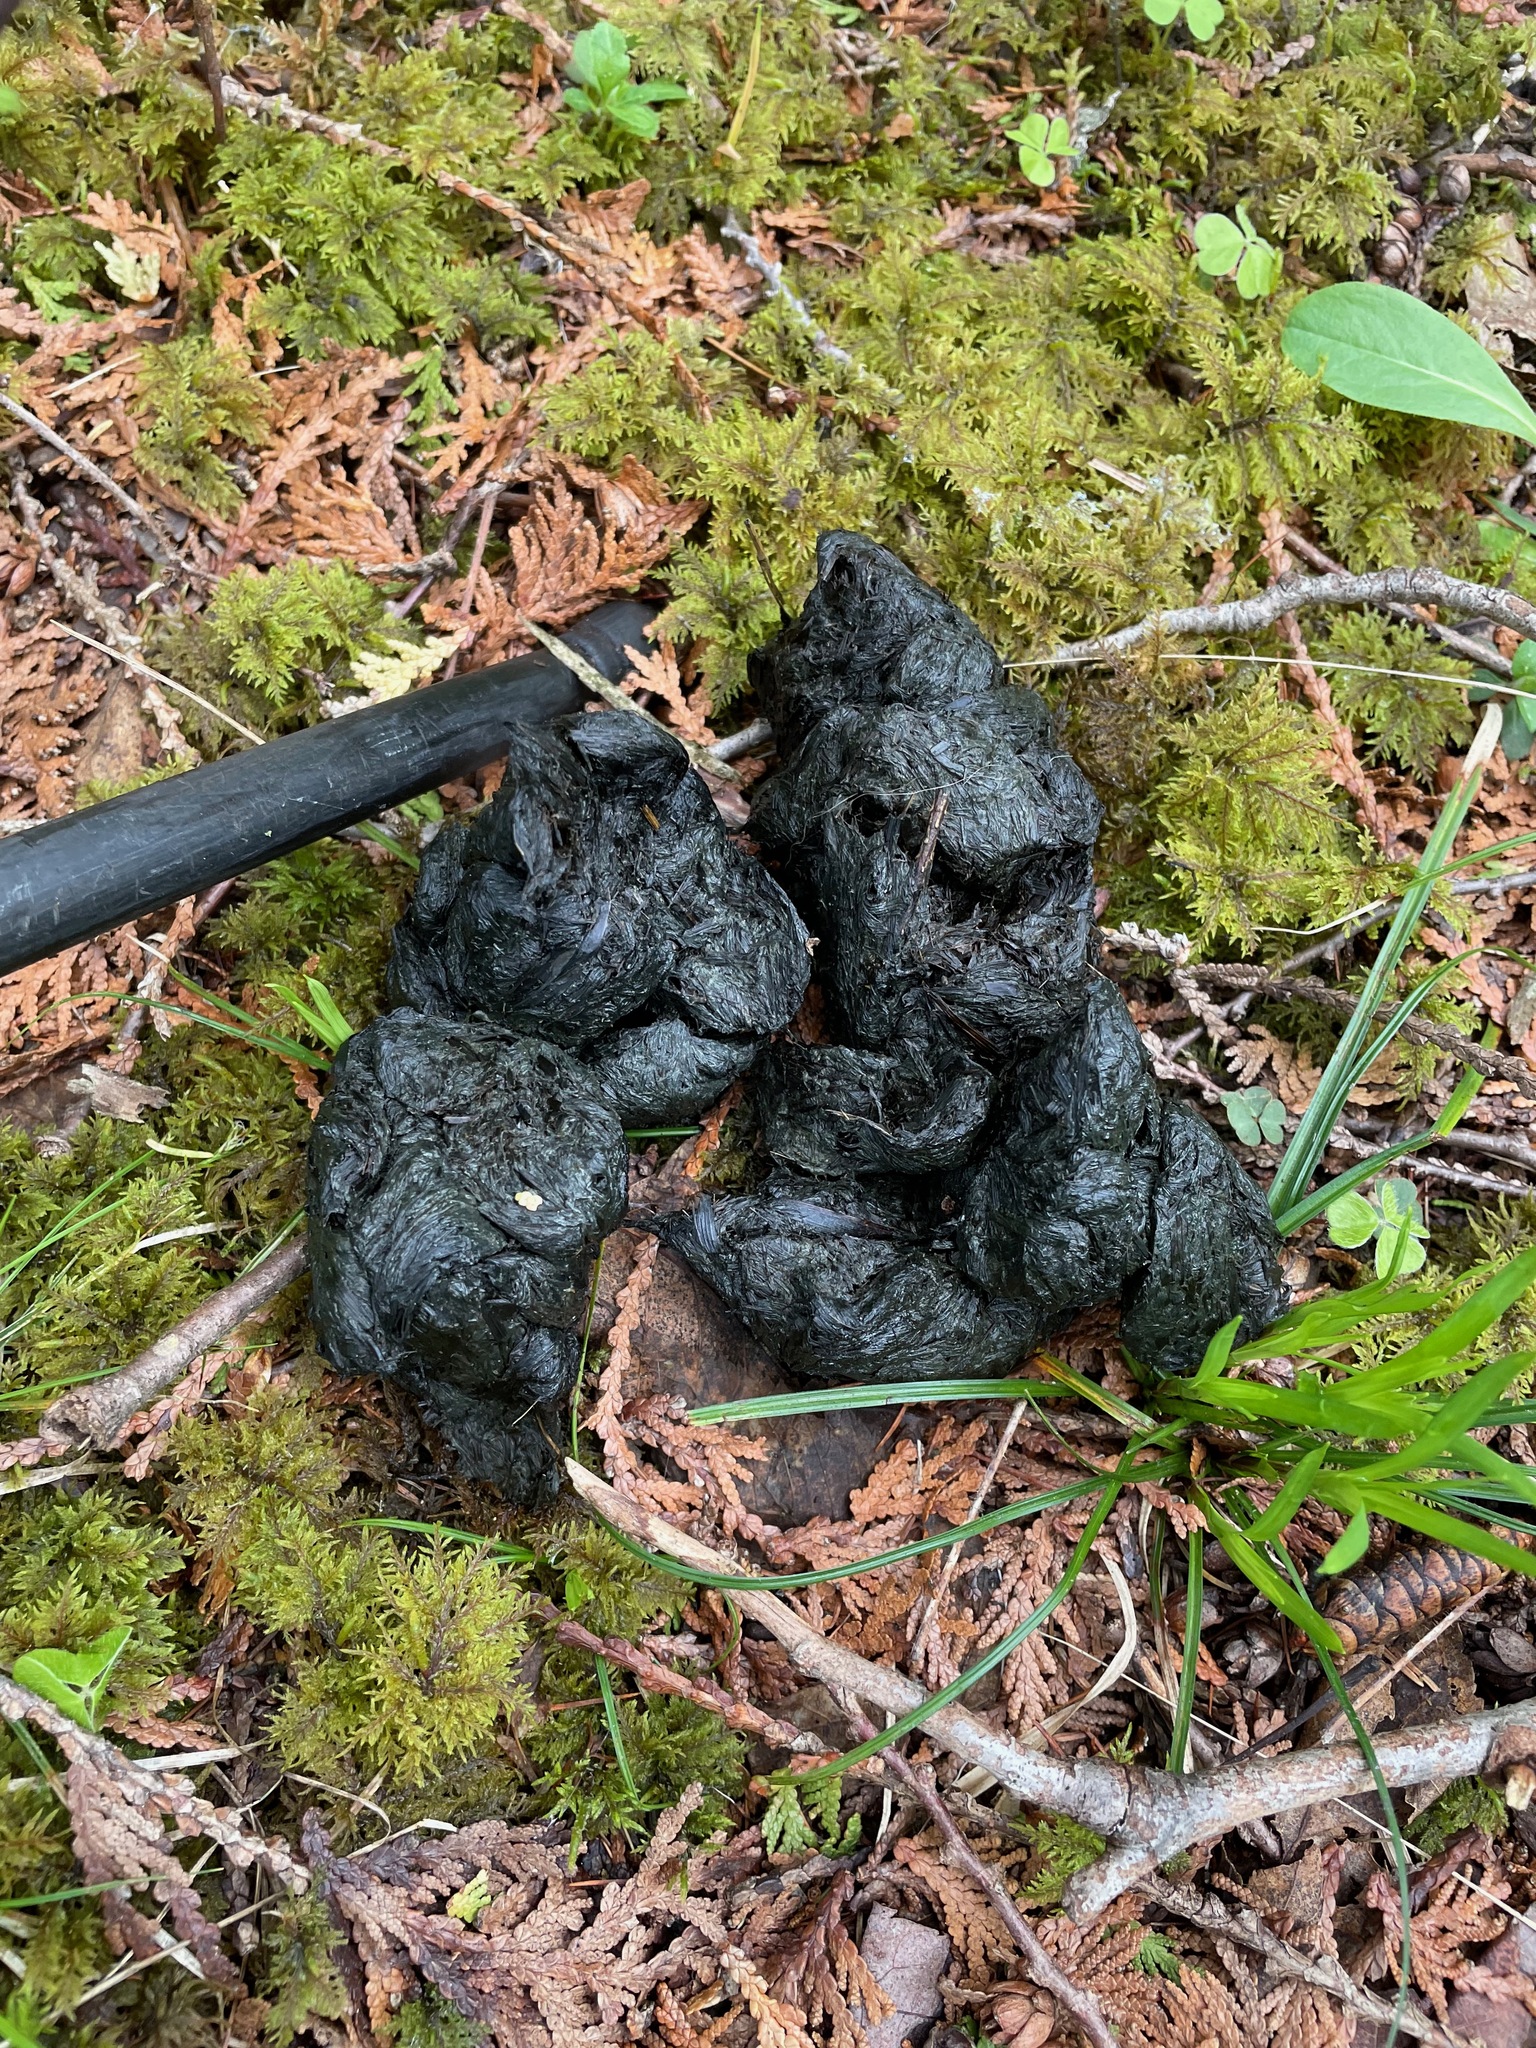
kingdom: Animalia
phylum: Chordata
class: Mammalia
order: Carnivora
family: Ursidae
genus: Ursus
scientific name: Ursus americanus
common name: American black bear
